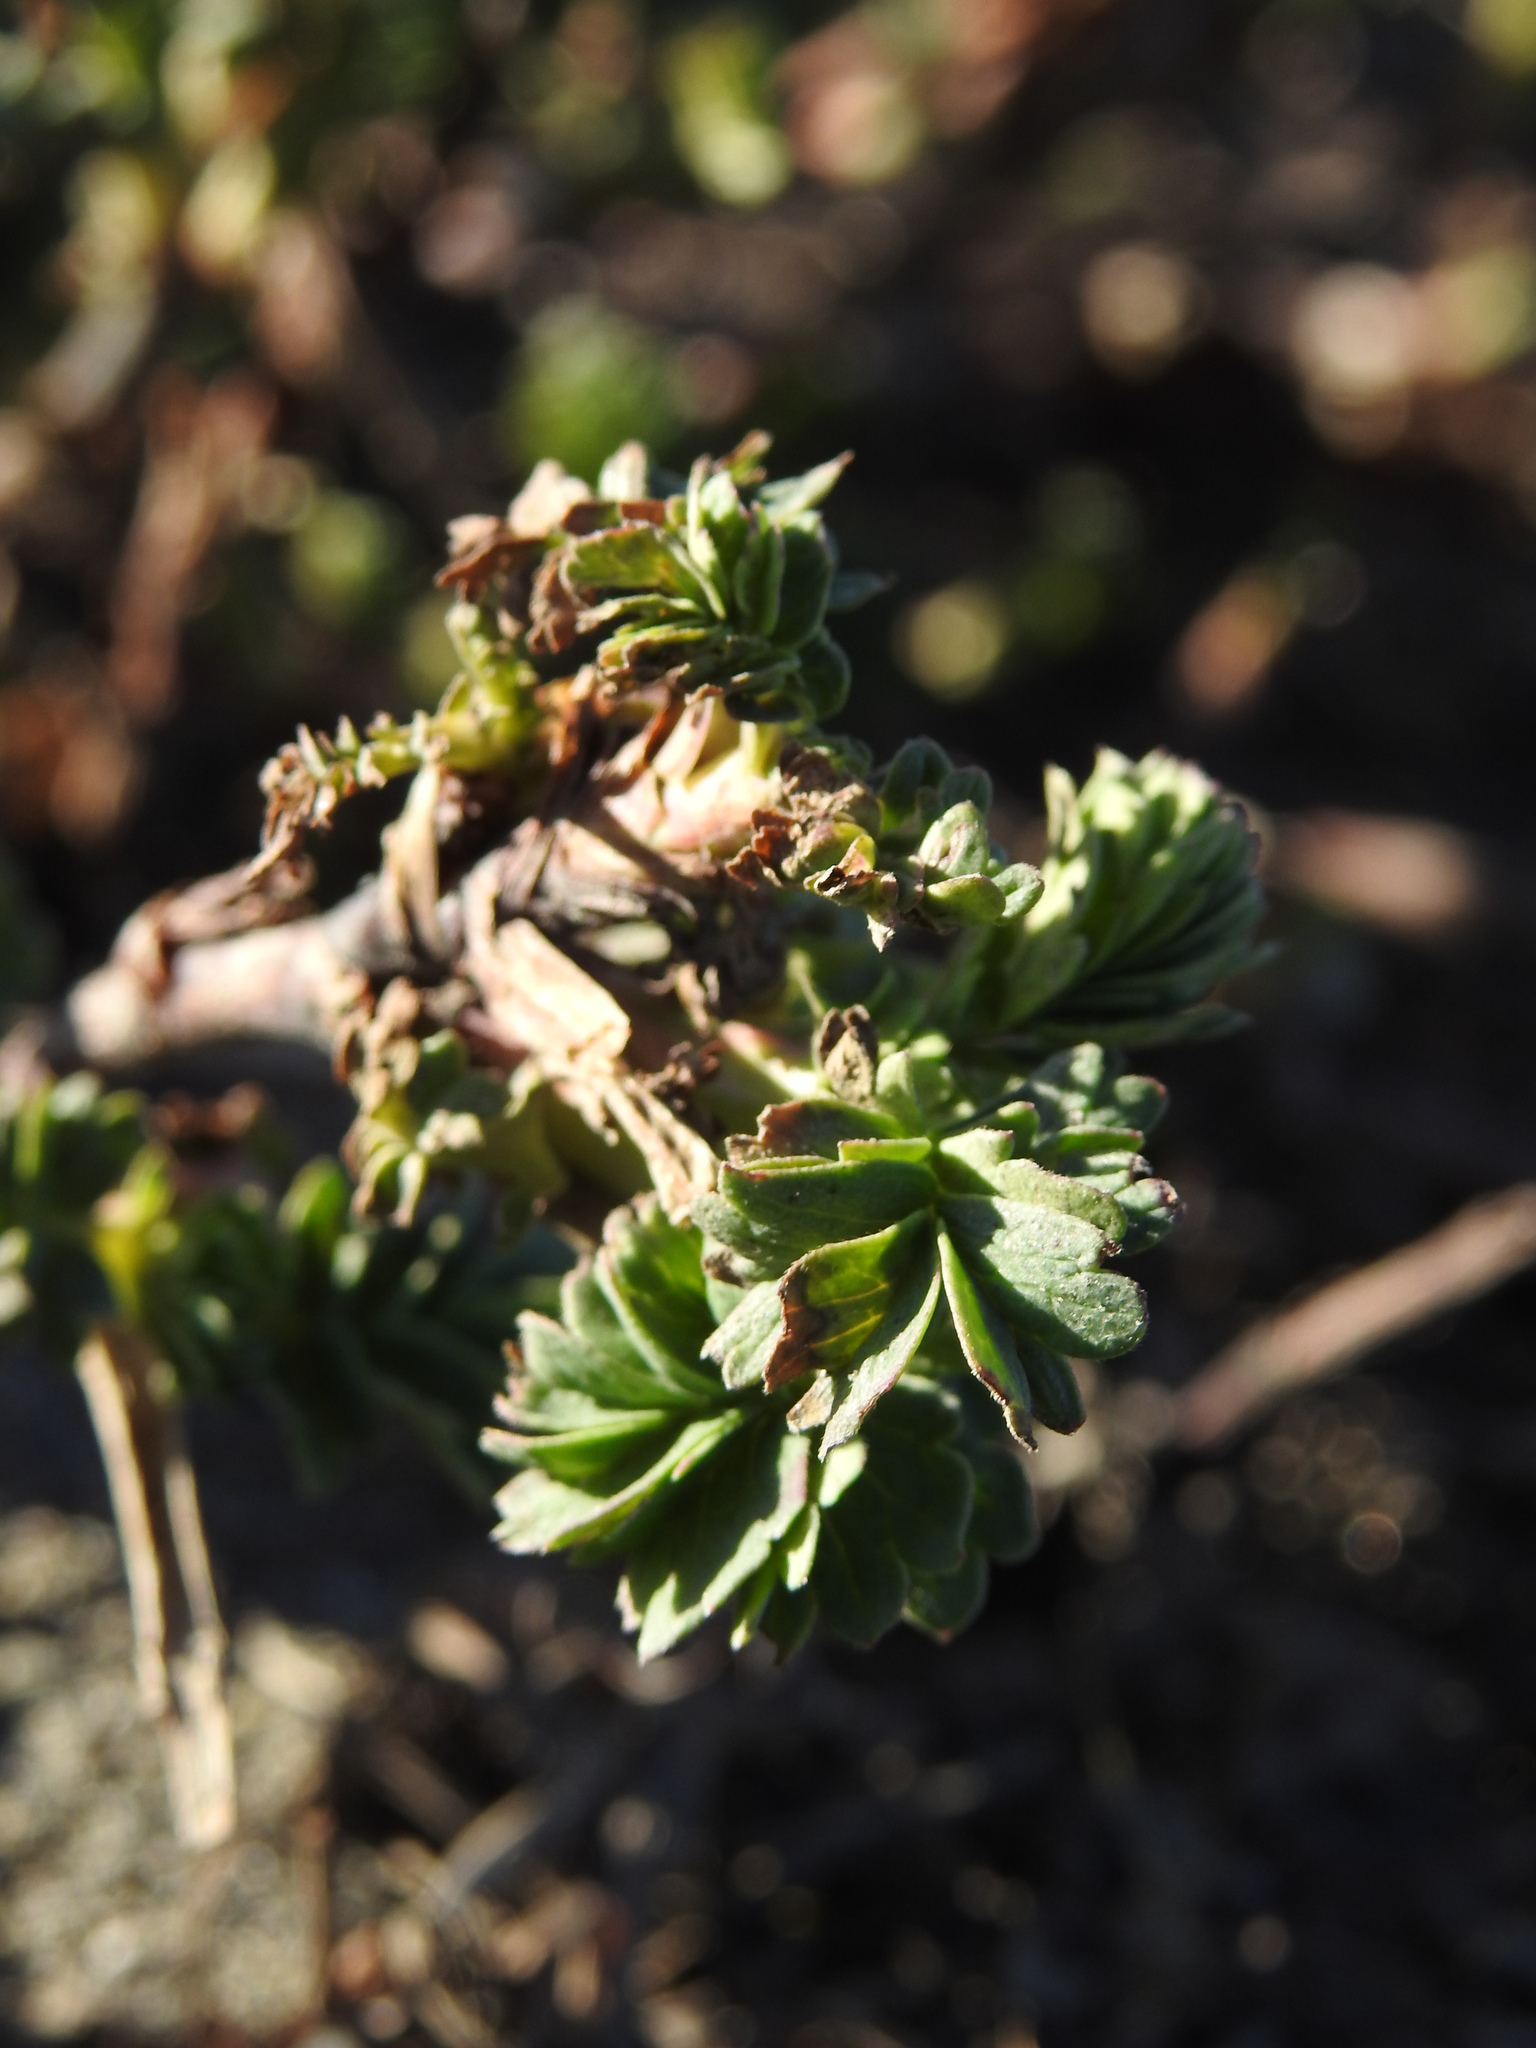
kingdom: Plantae
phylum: Tracheophyta
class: Magnoliopsida
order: Rosales
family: Rosaceae
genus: Acaena
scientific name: Acaena tenera
